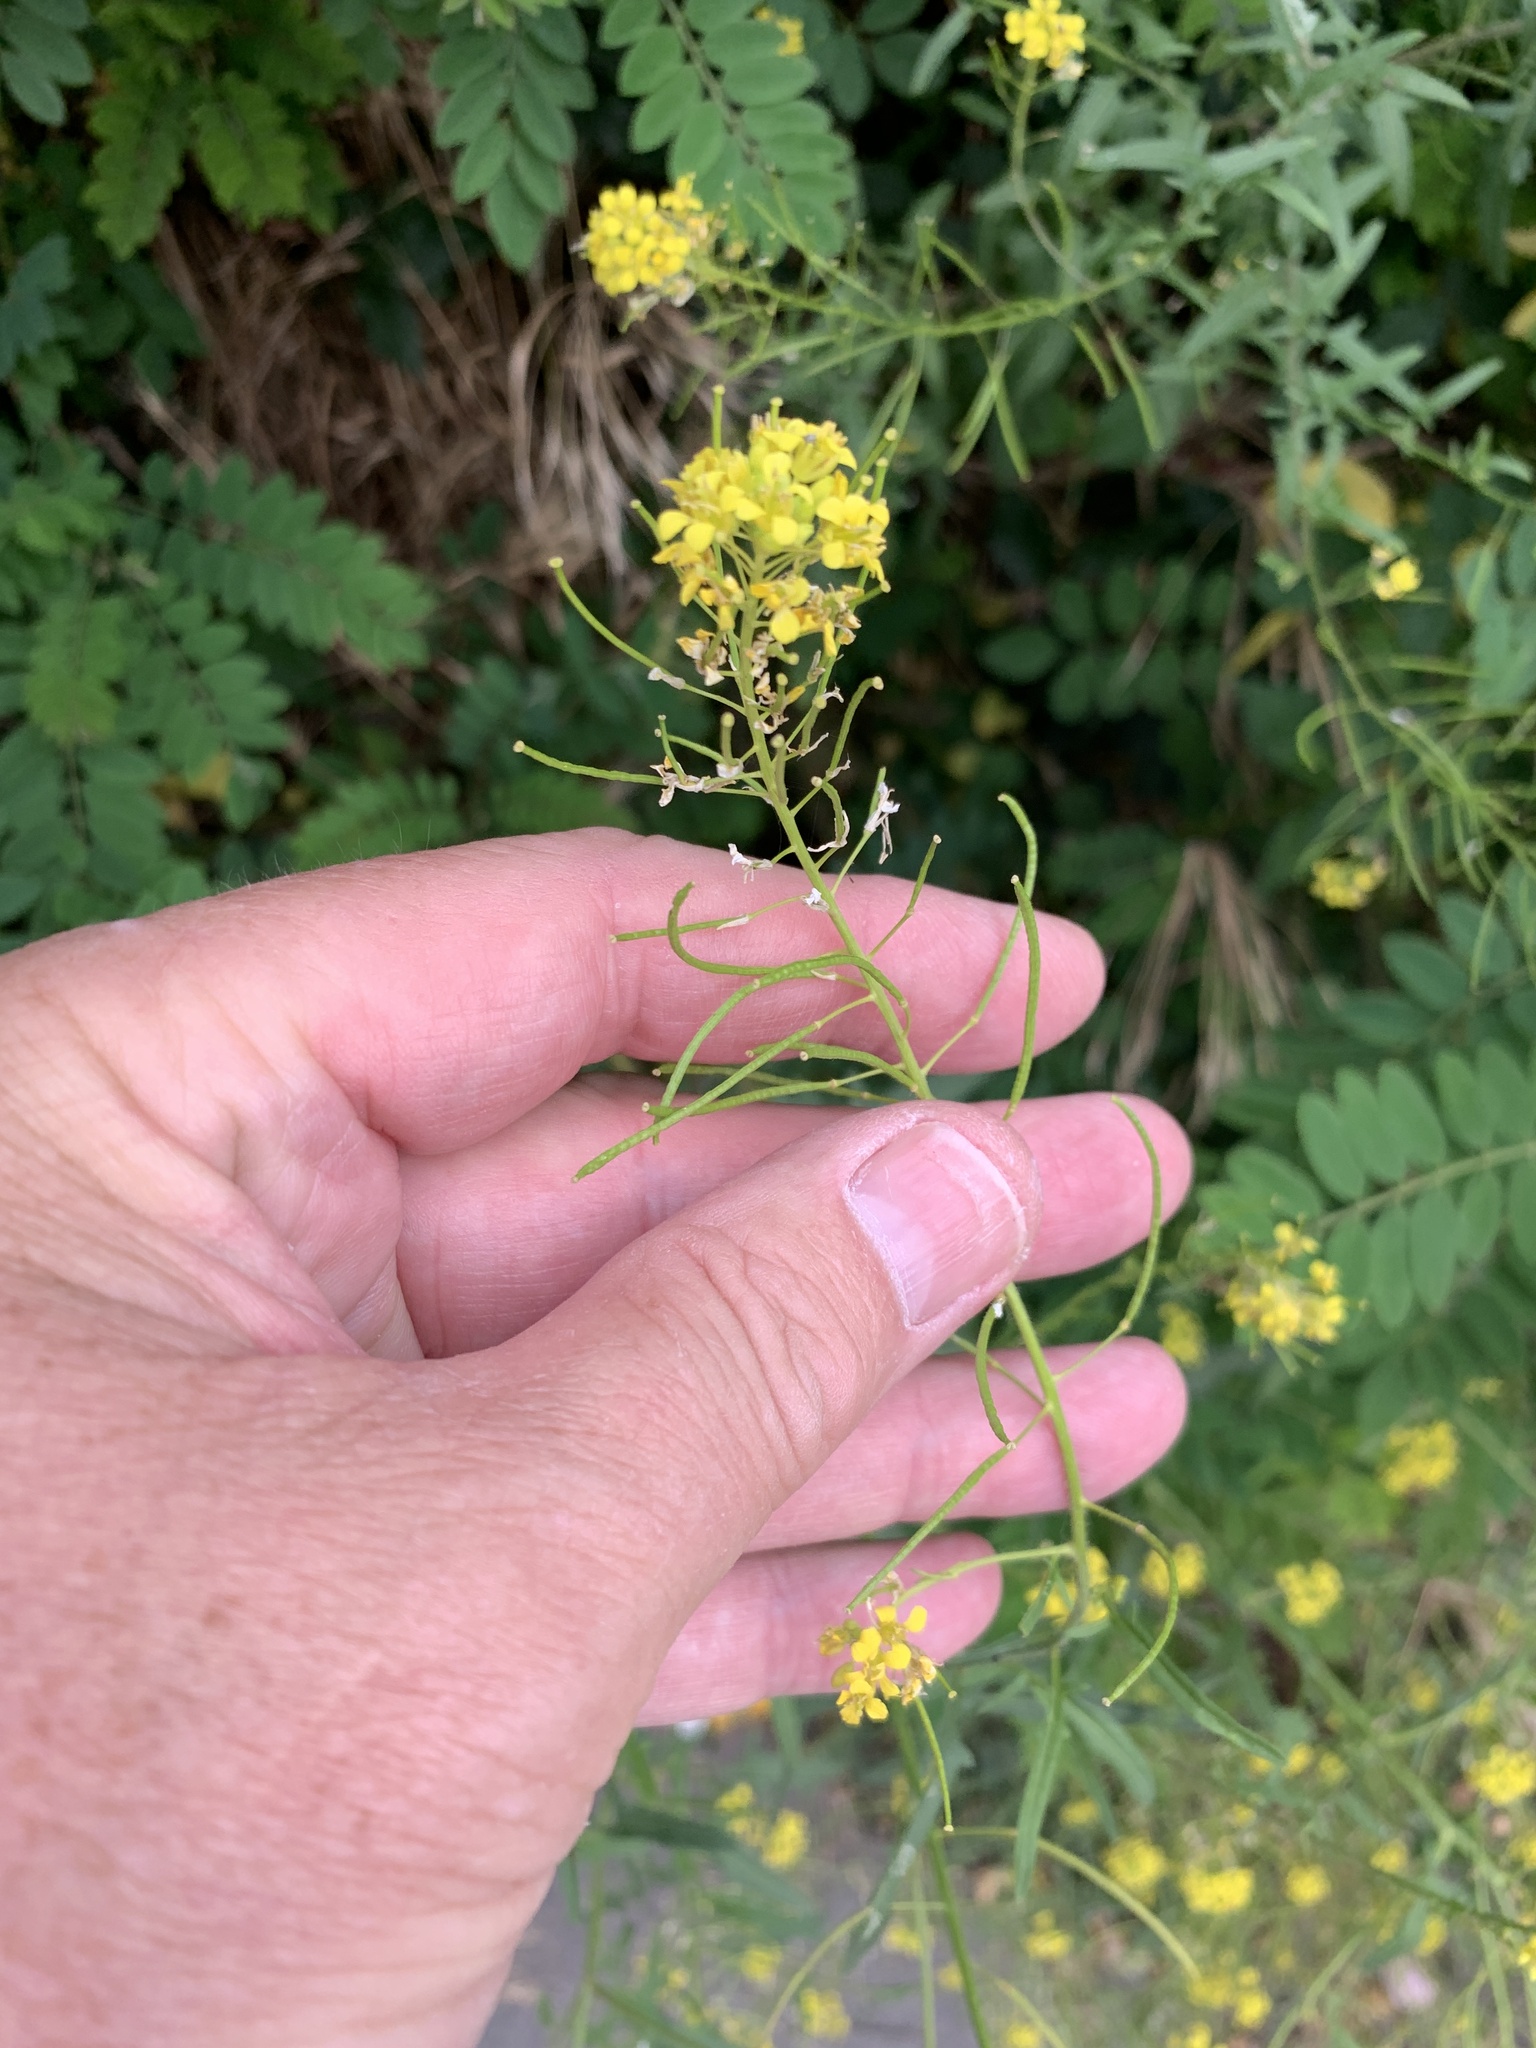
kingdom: Plantae
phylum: Tracheophyta
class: Magnoliopsida
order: Brassicales
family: Brassicaceae
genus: Sisymbrium
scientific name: Sisymbrium loeselii
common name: False london-rocket
